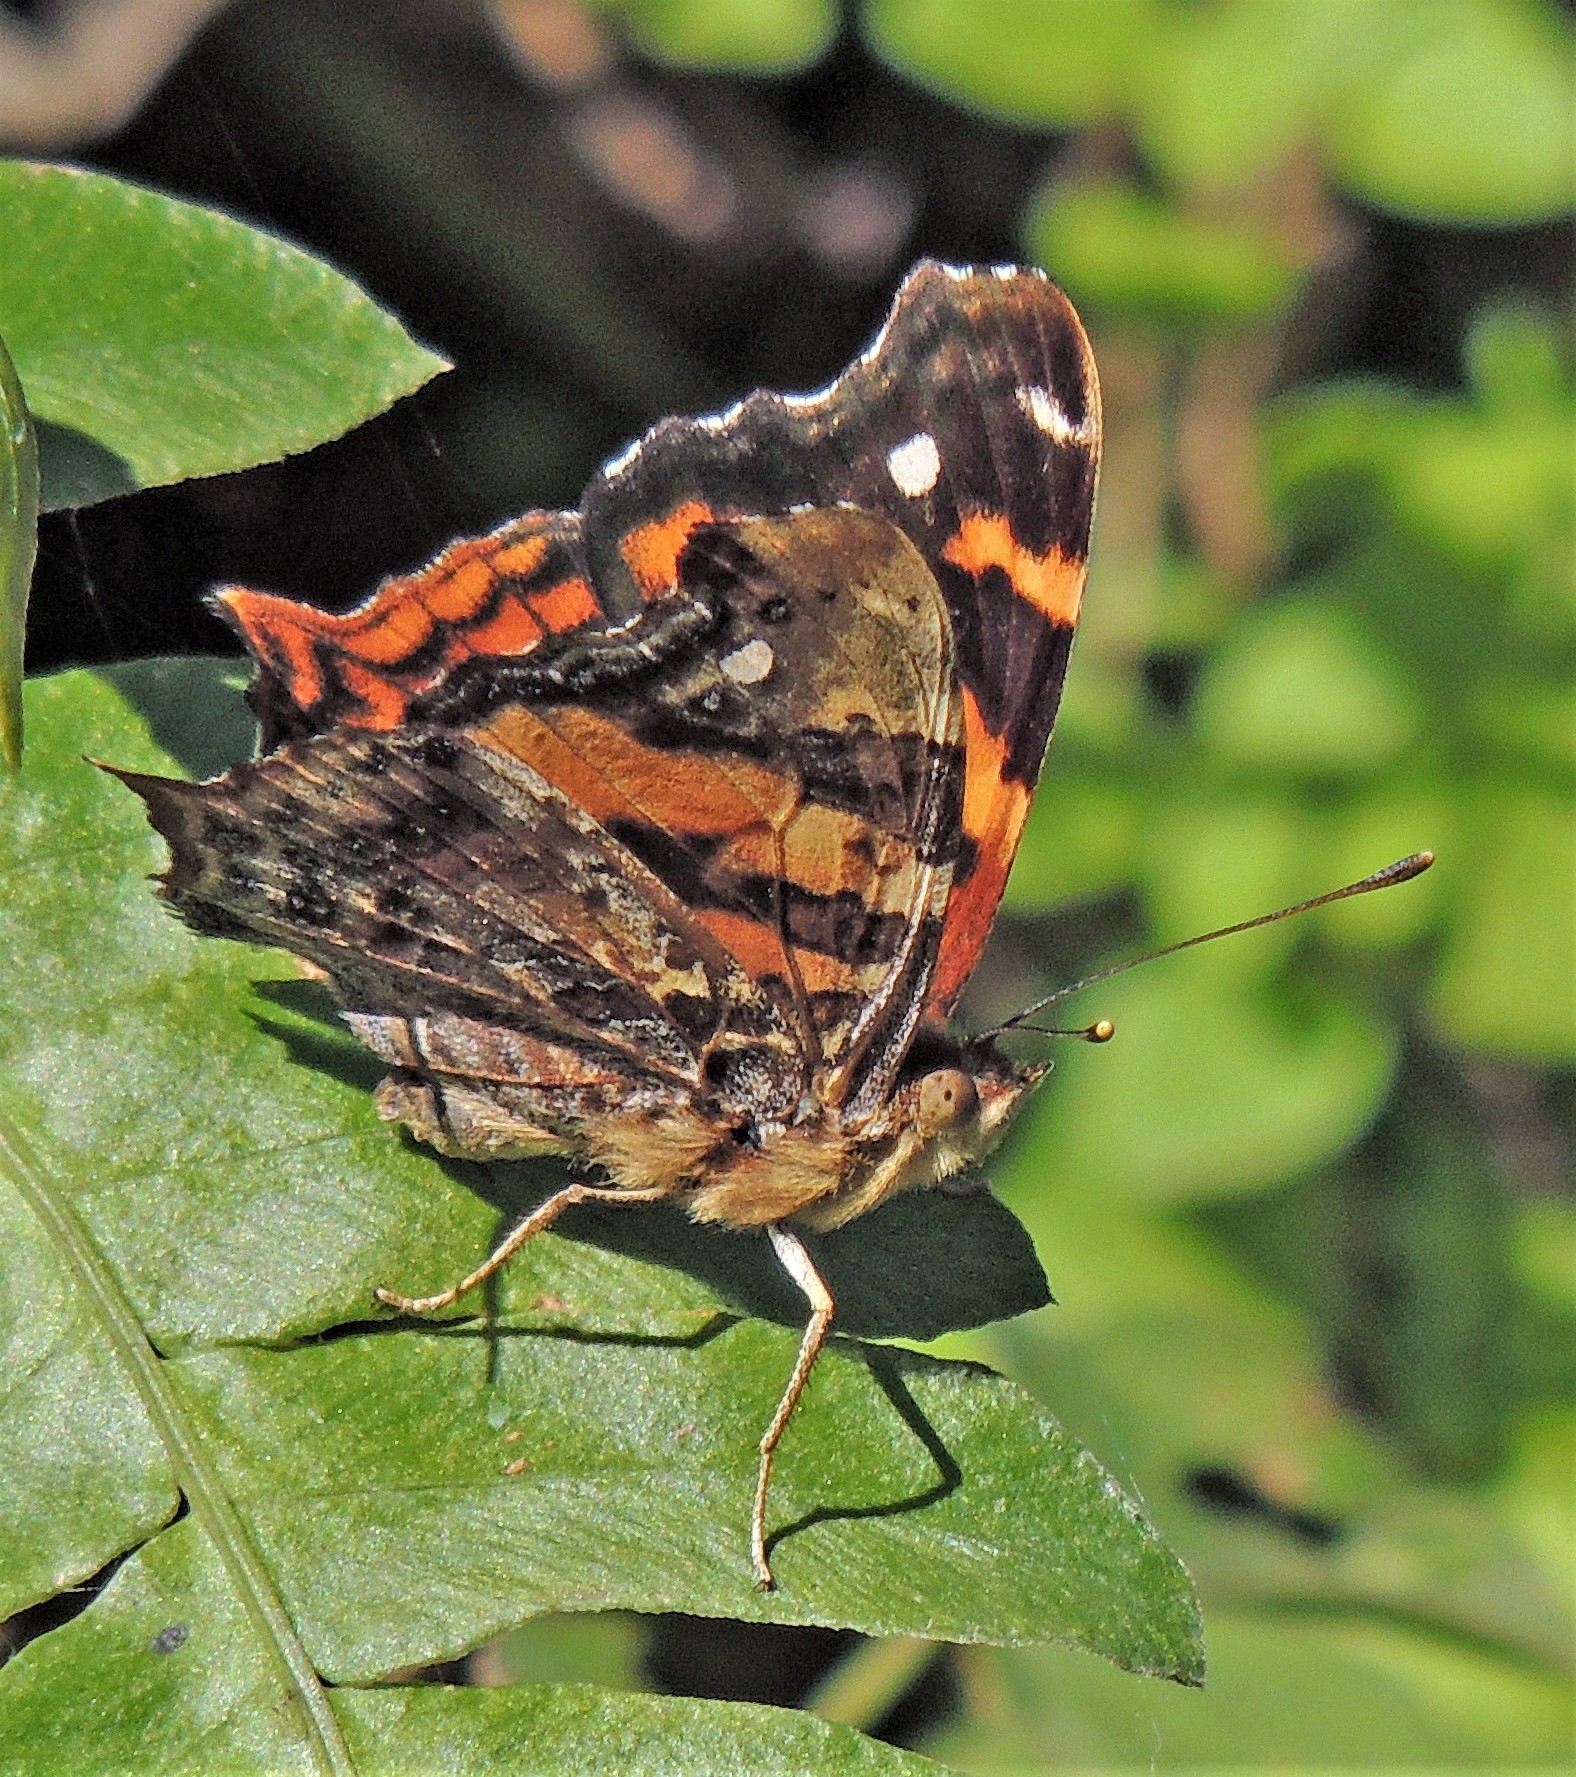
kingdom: Animalia
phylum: Arthropoda
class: Insecta
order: Lepidoptera
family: Nymphalidae
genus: Hypanartia
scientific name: Hypanartia bella
